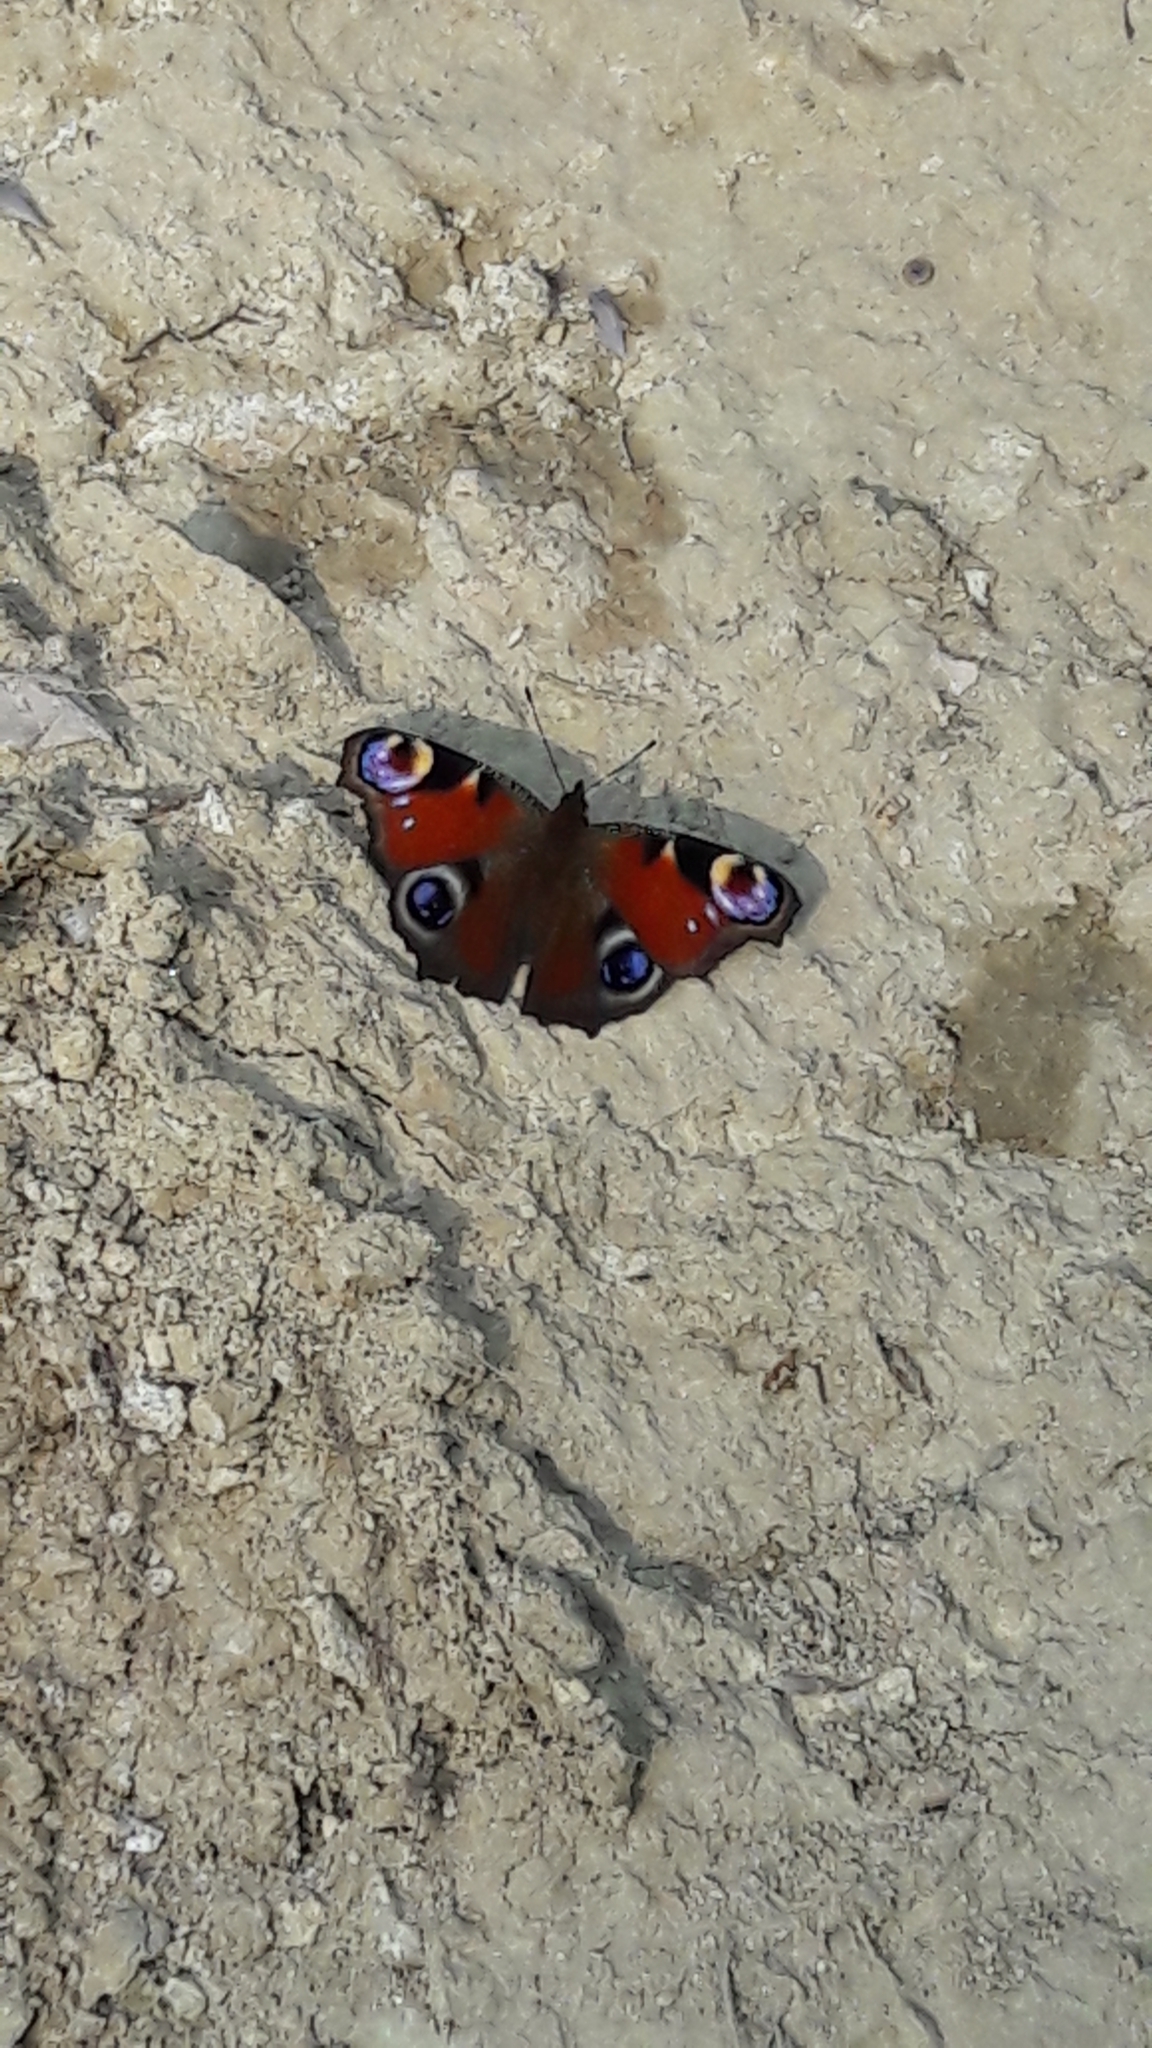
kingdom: Animalia
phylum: Arthropoda
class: Insecta
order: Lepidoptera
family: Nymphalidae
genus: Aglais
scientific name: Aglais io
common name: Peacock
